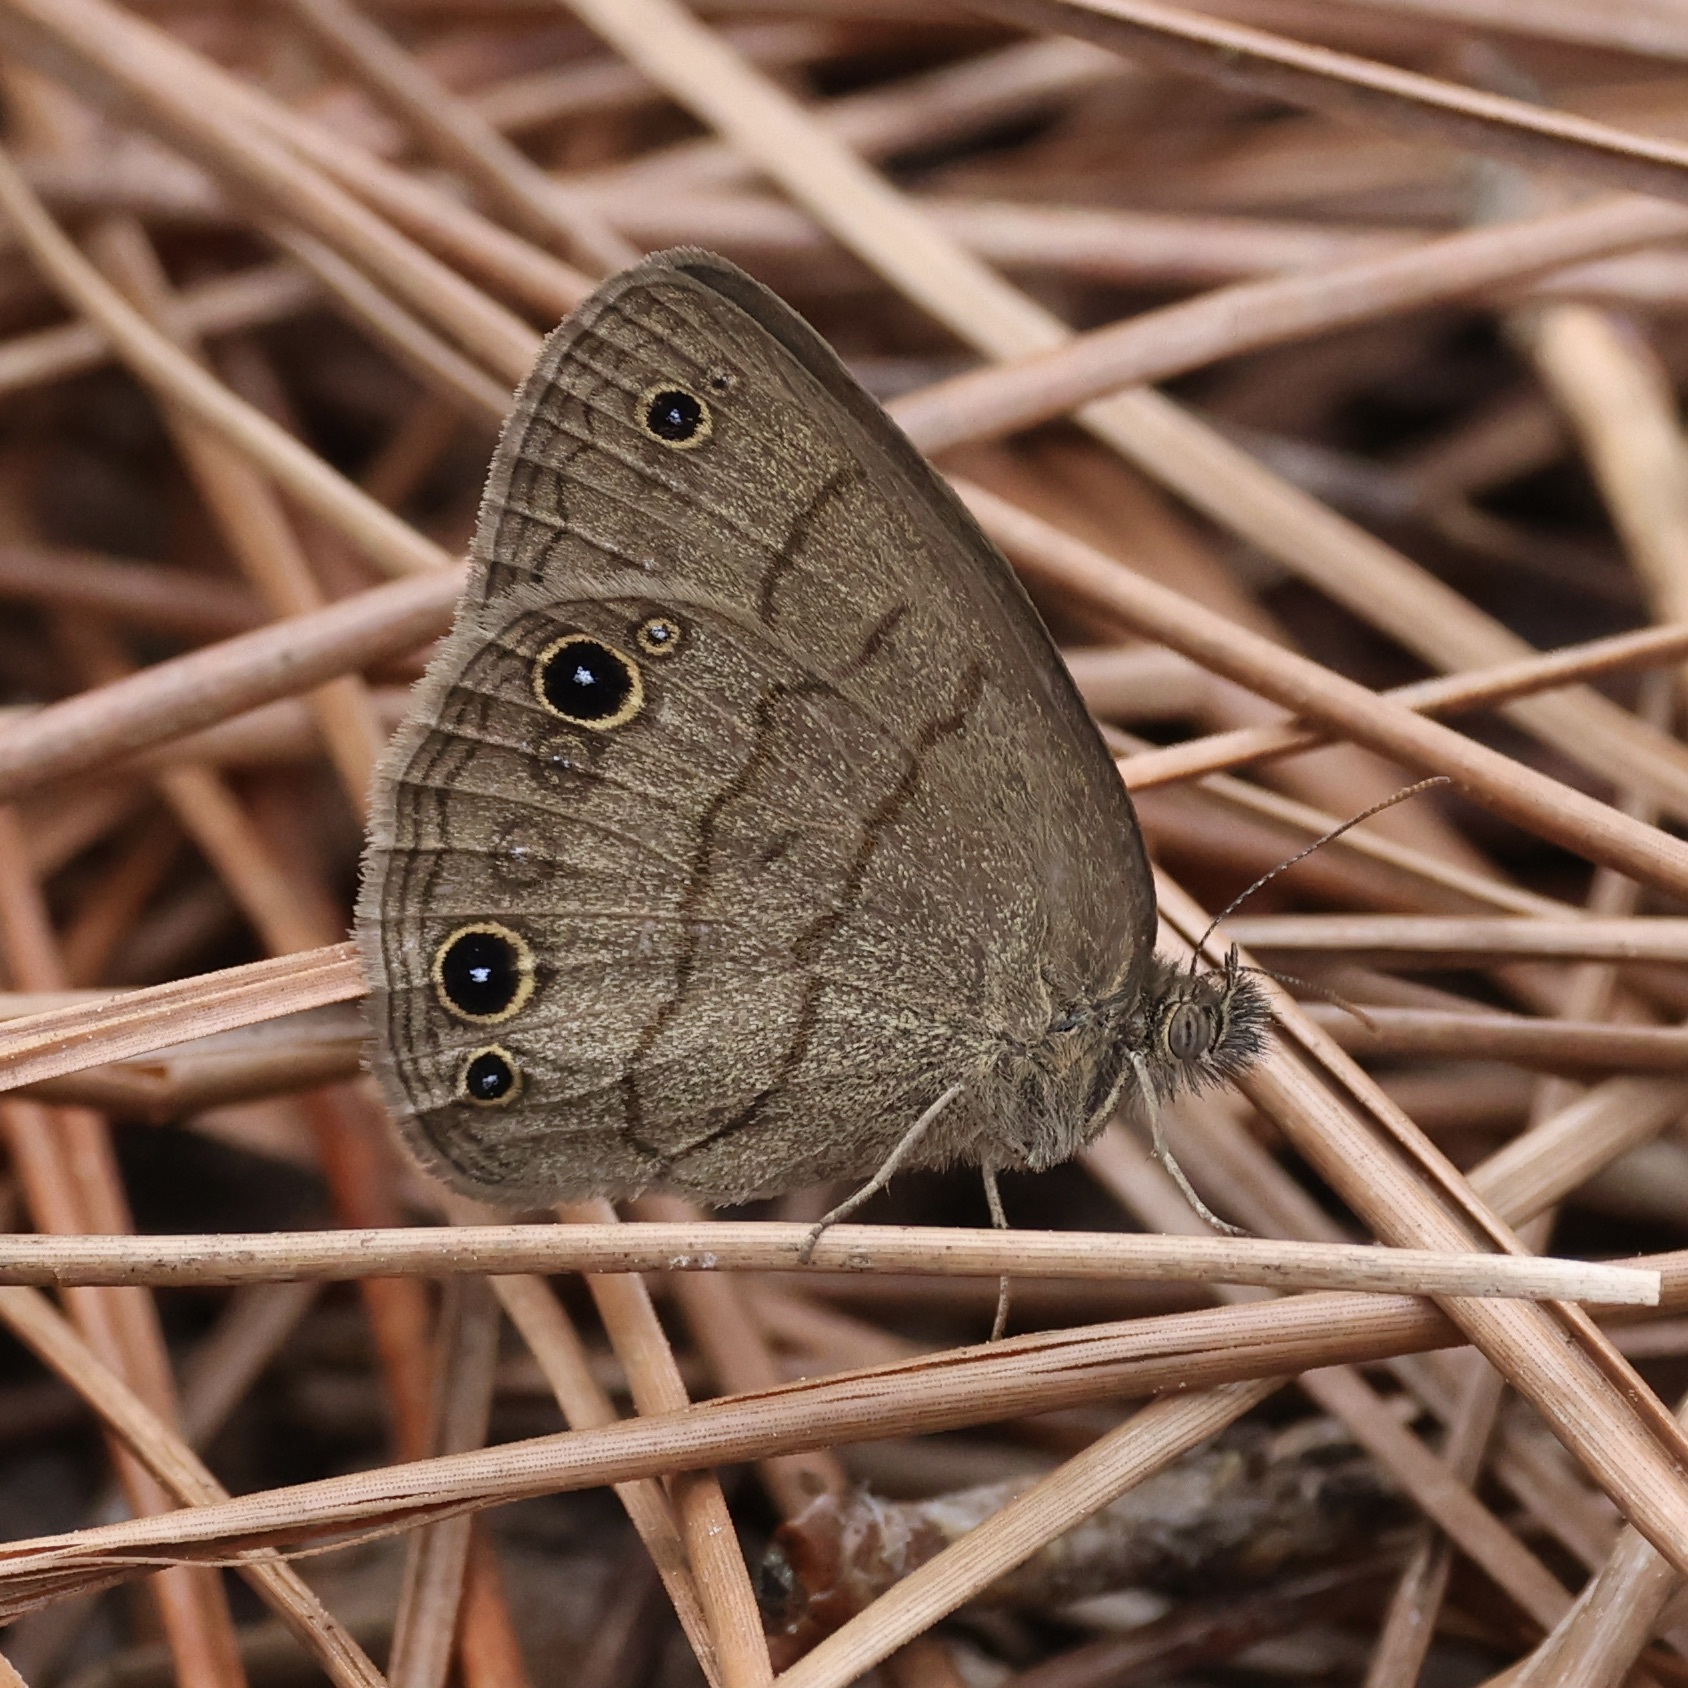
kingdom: Animalia
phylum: Arthropoda
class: Insecta
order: Lepidoptera
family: Nymphalidae
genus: Hermeuptychia
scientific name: Hermeuptychia hermes
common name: Hermes satyr
